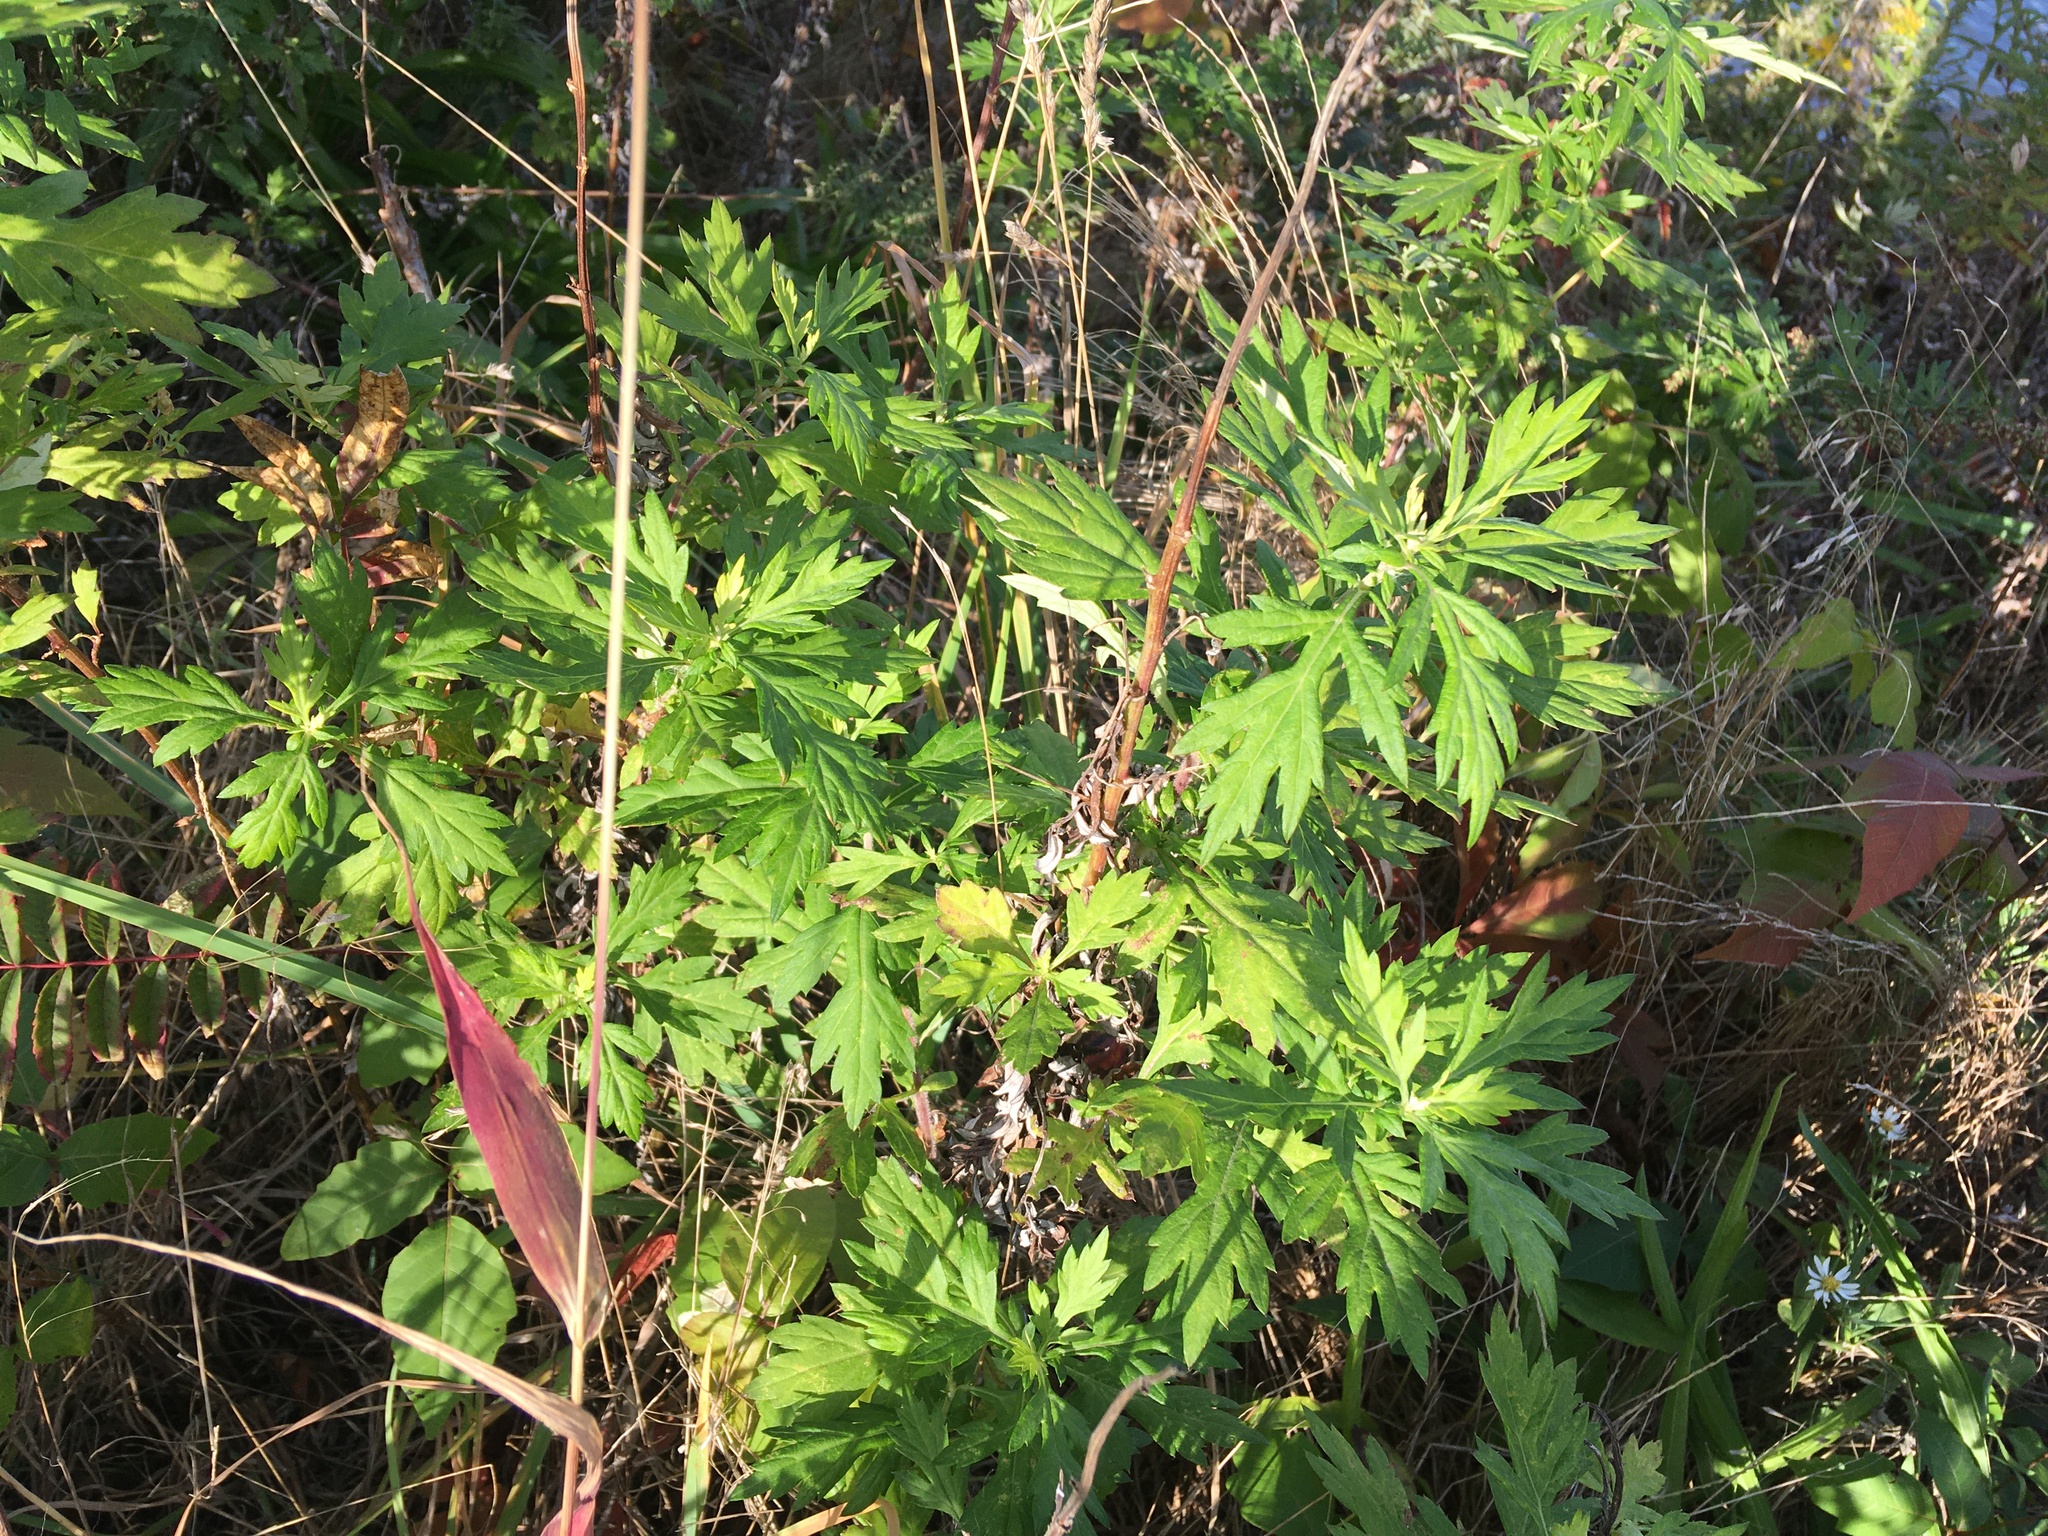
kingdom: Plantae
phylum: Tracheophyta
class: Magnoliopsida
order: Asterales
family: Asteraceae
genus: Artemisia
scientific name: Artemisia vulgaris
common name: Mugwort
